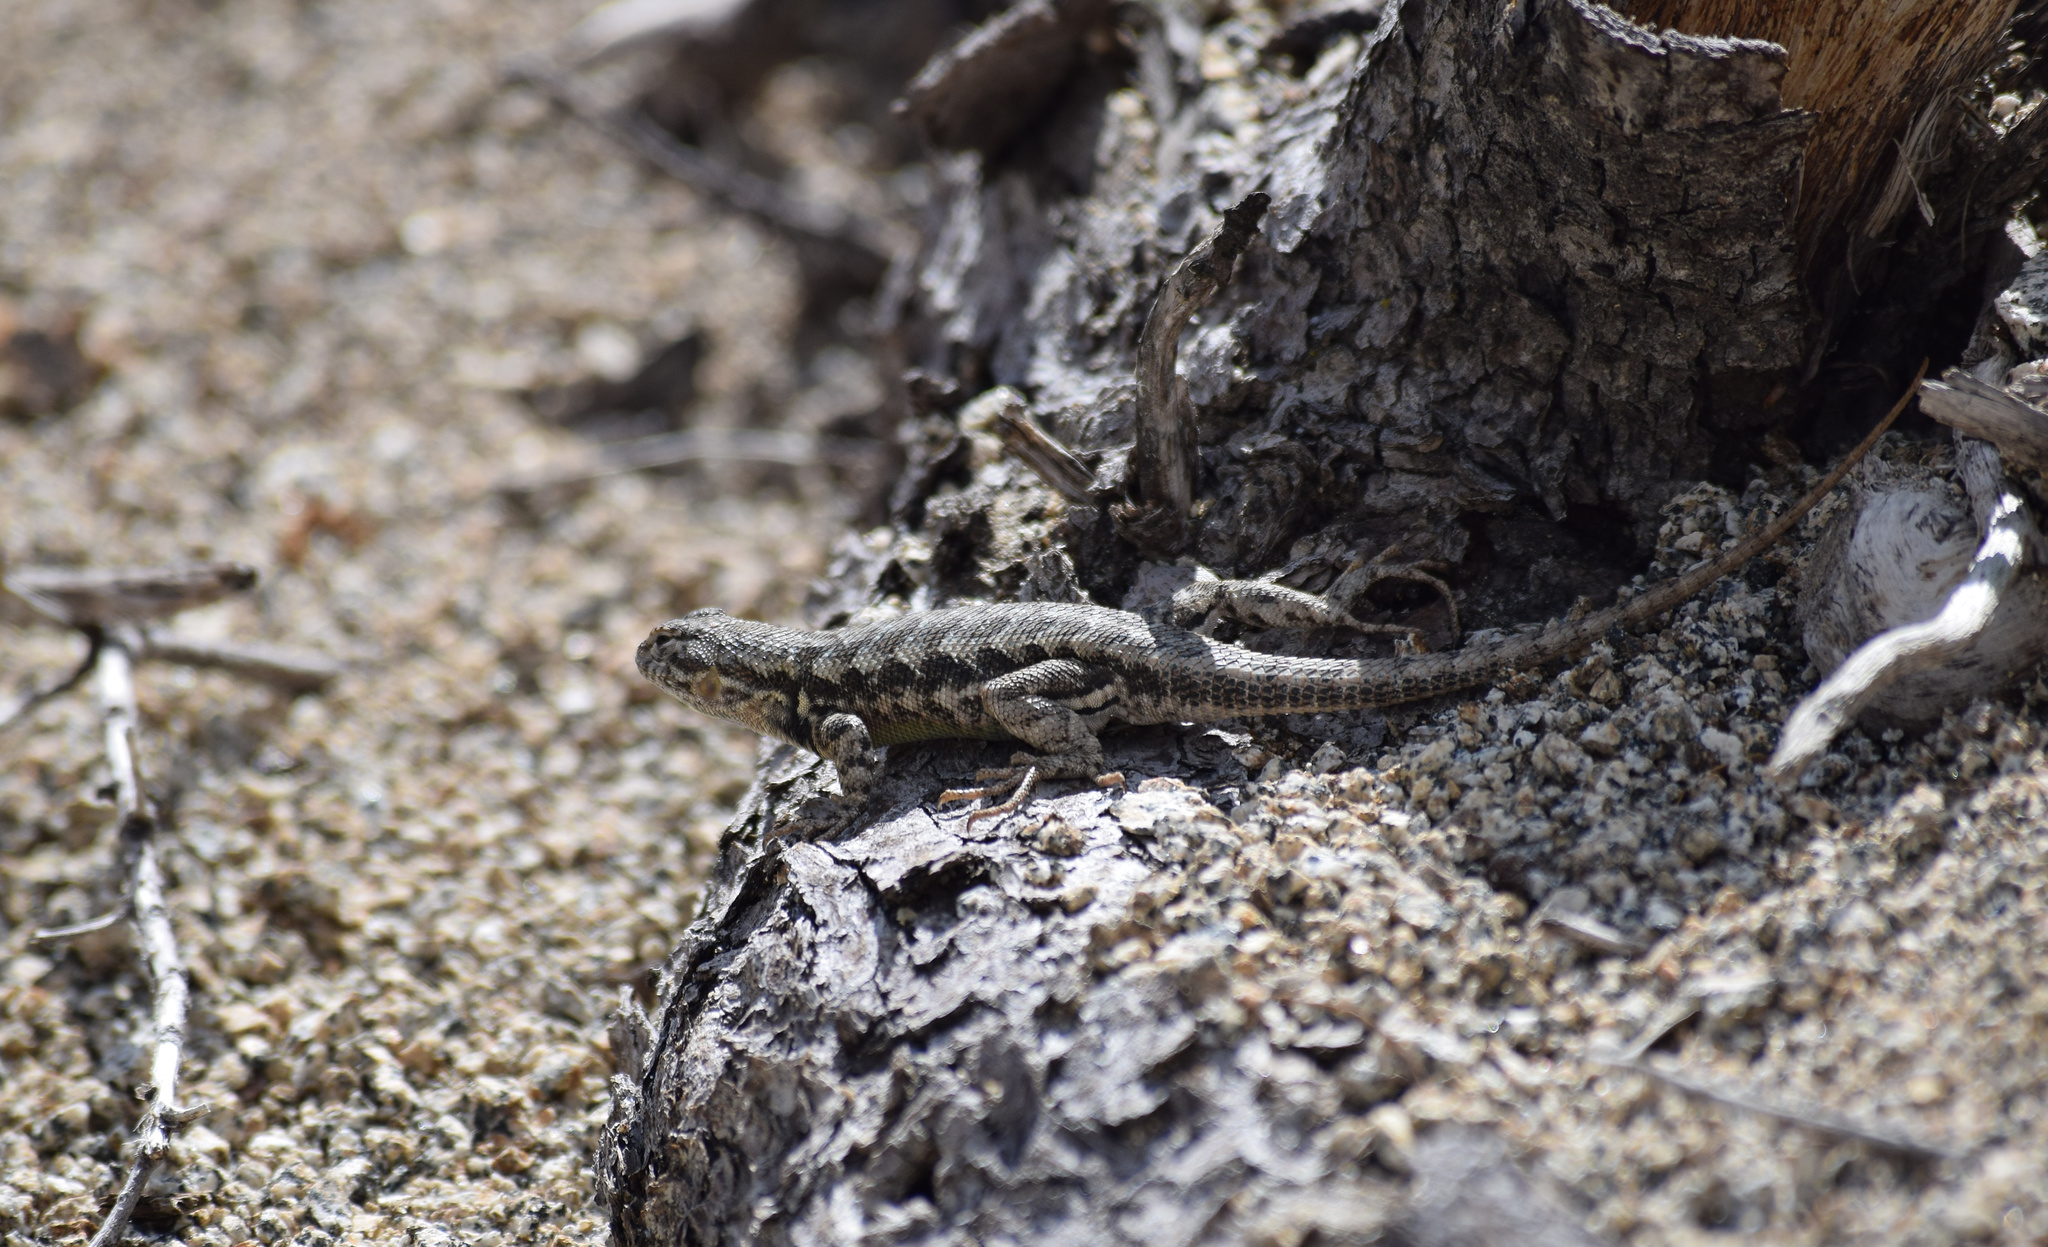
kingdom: Animalia
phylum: Chordata
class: Squamata
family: Phrynosomatidae
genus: Sceloporus
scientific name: Sceloporus graciosus
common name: Sagebrush lizard
